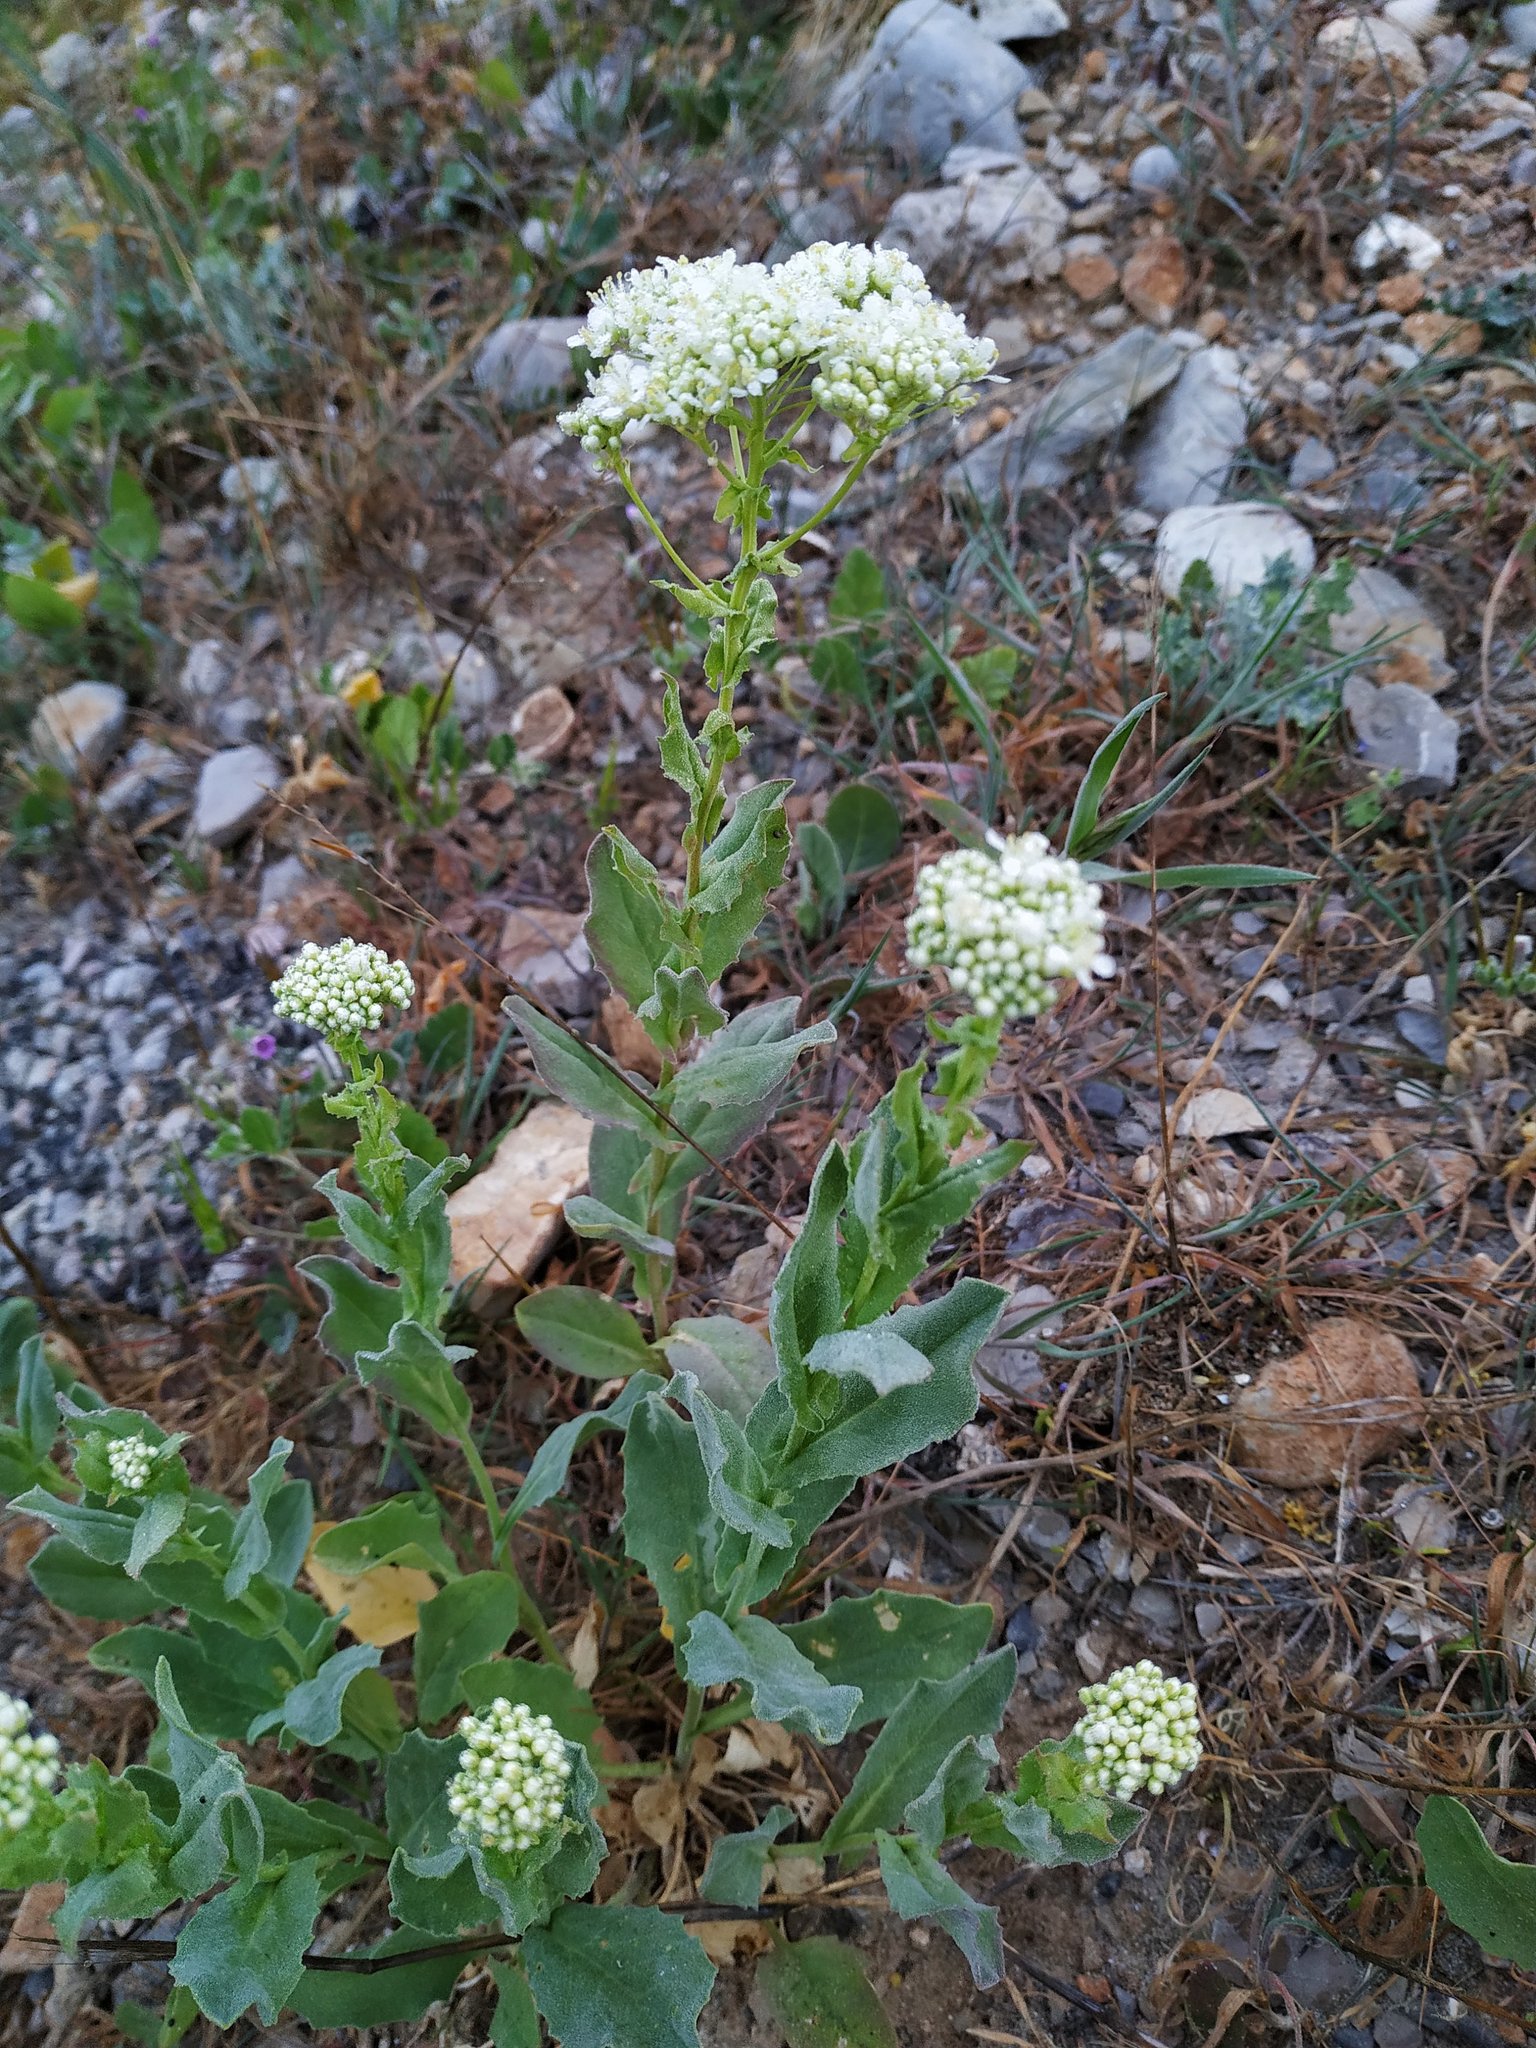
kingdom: Plantae
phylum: Tracheophyta
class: Magnoliopsida
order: Brassicales
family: Brassicaceae
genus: Lepidium
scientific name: Lepidium draba
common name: Hoary cress
